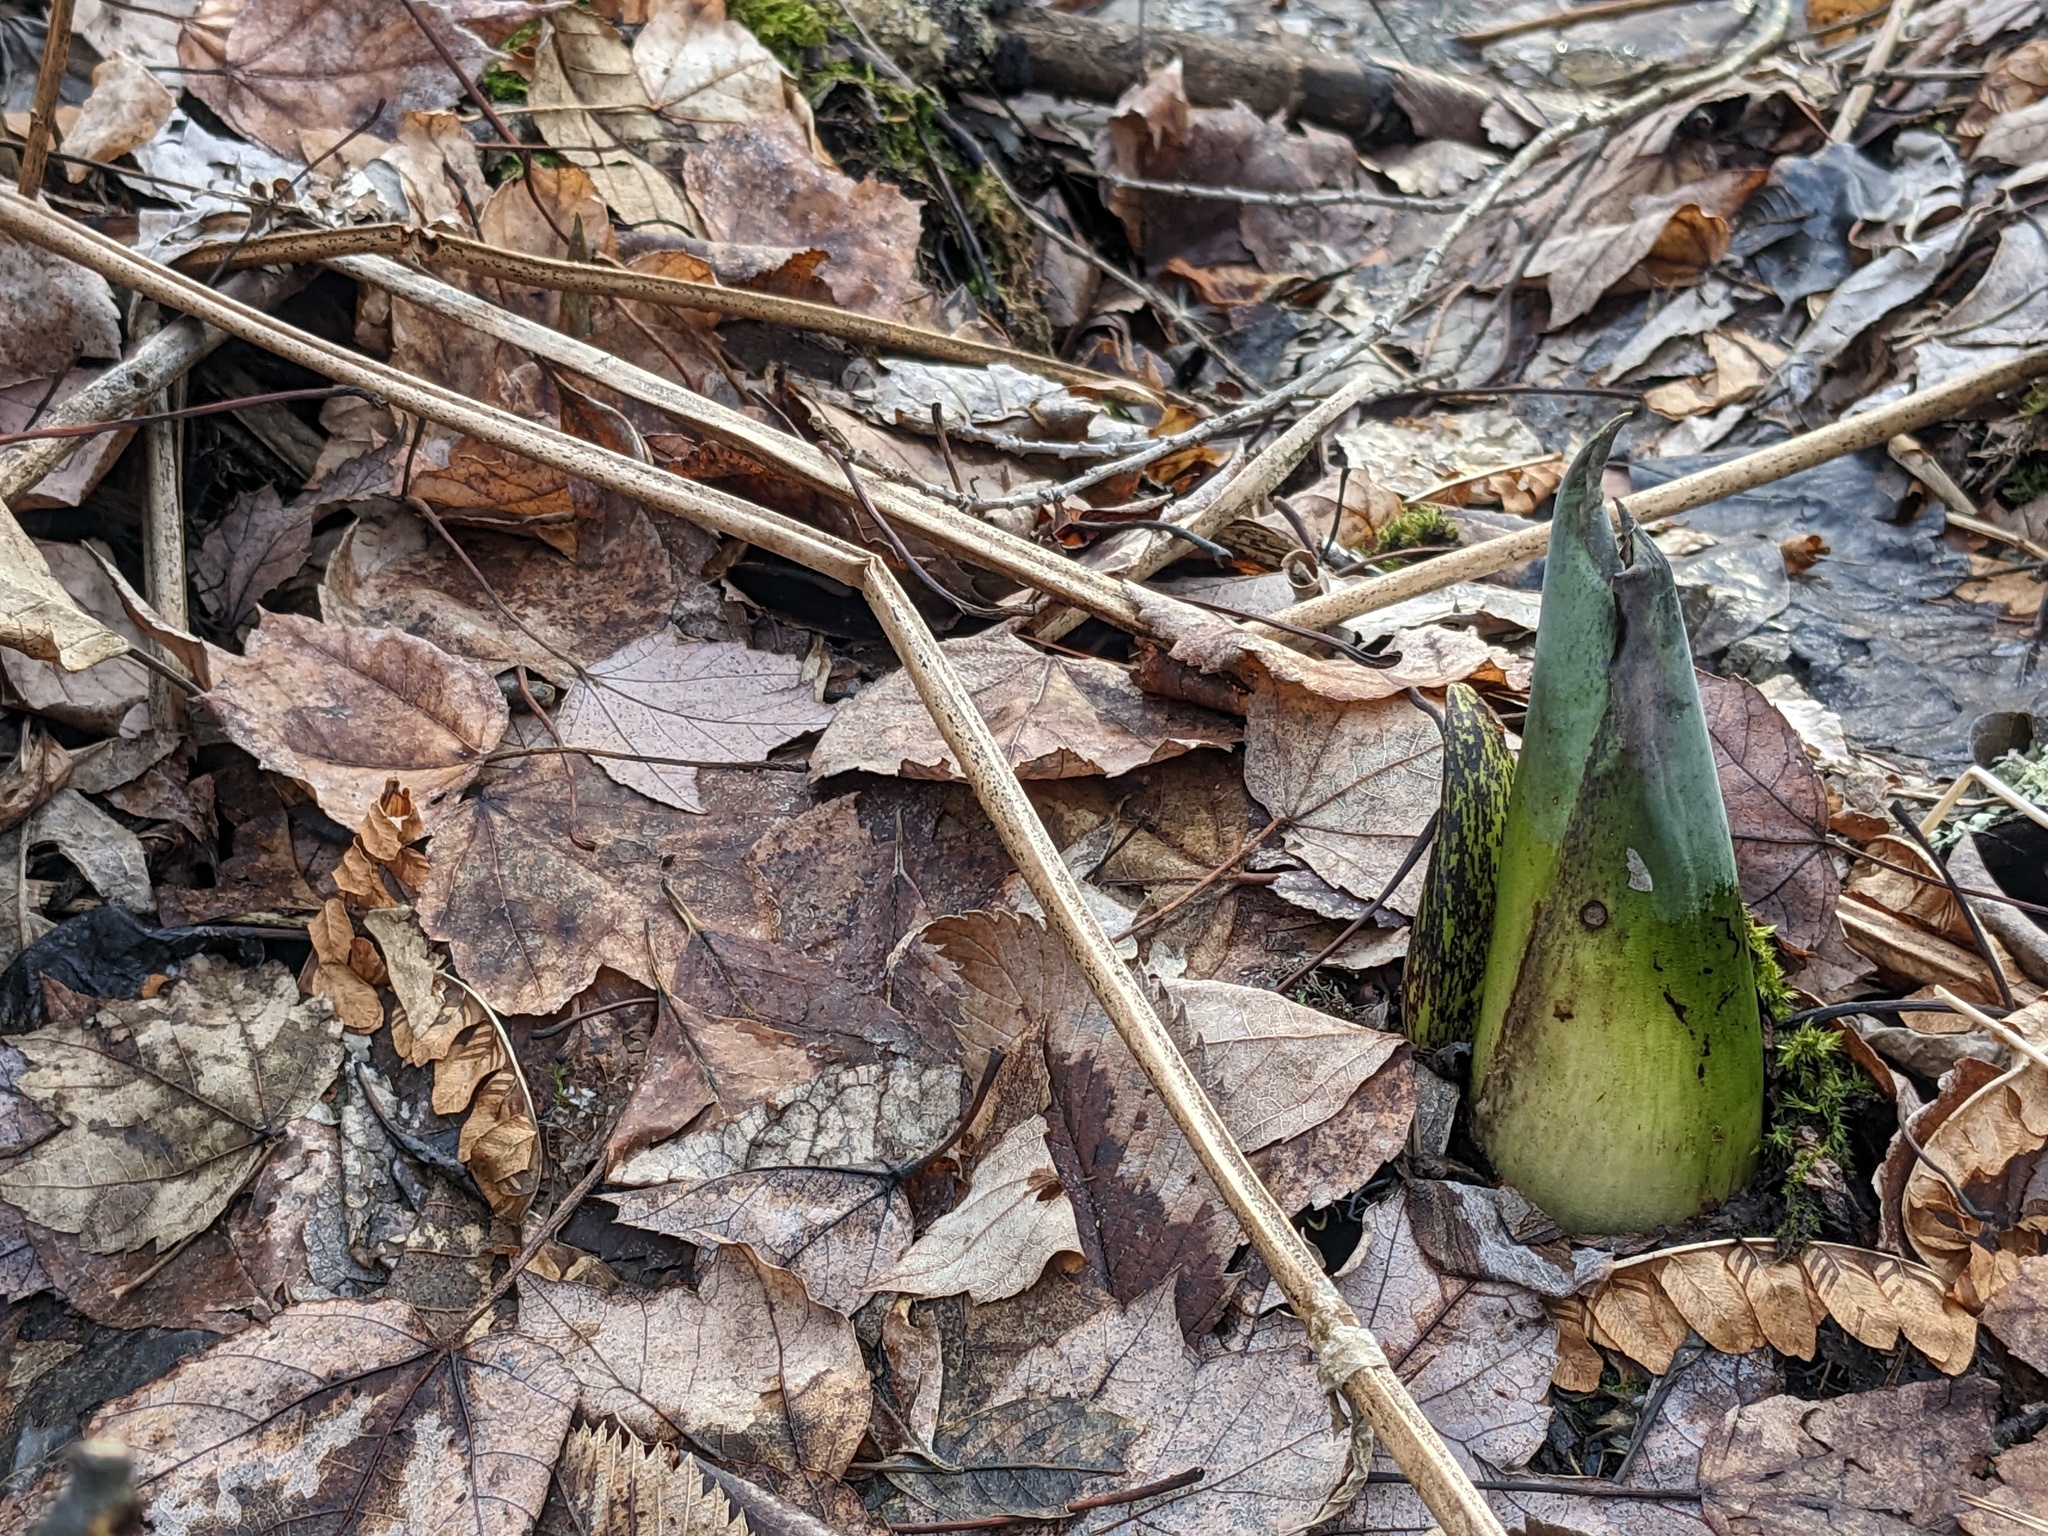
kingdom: Plantae
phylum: Tracheophyta
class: Liliopsida
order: Alismatales
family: Araceae
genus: Symplocarpus
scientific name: Symplocarpus foetidus
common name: Eastern skunk cabbage
